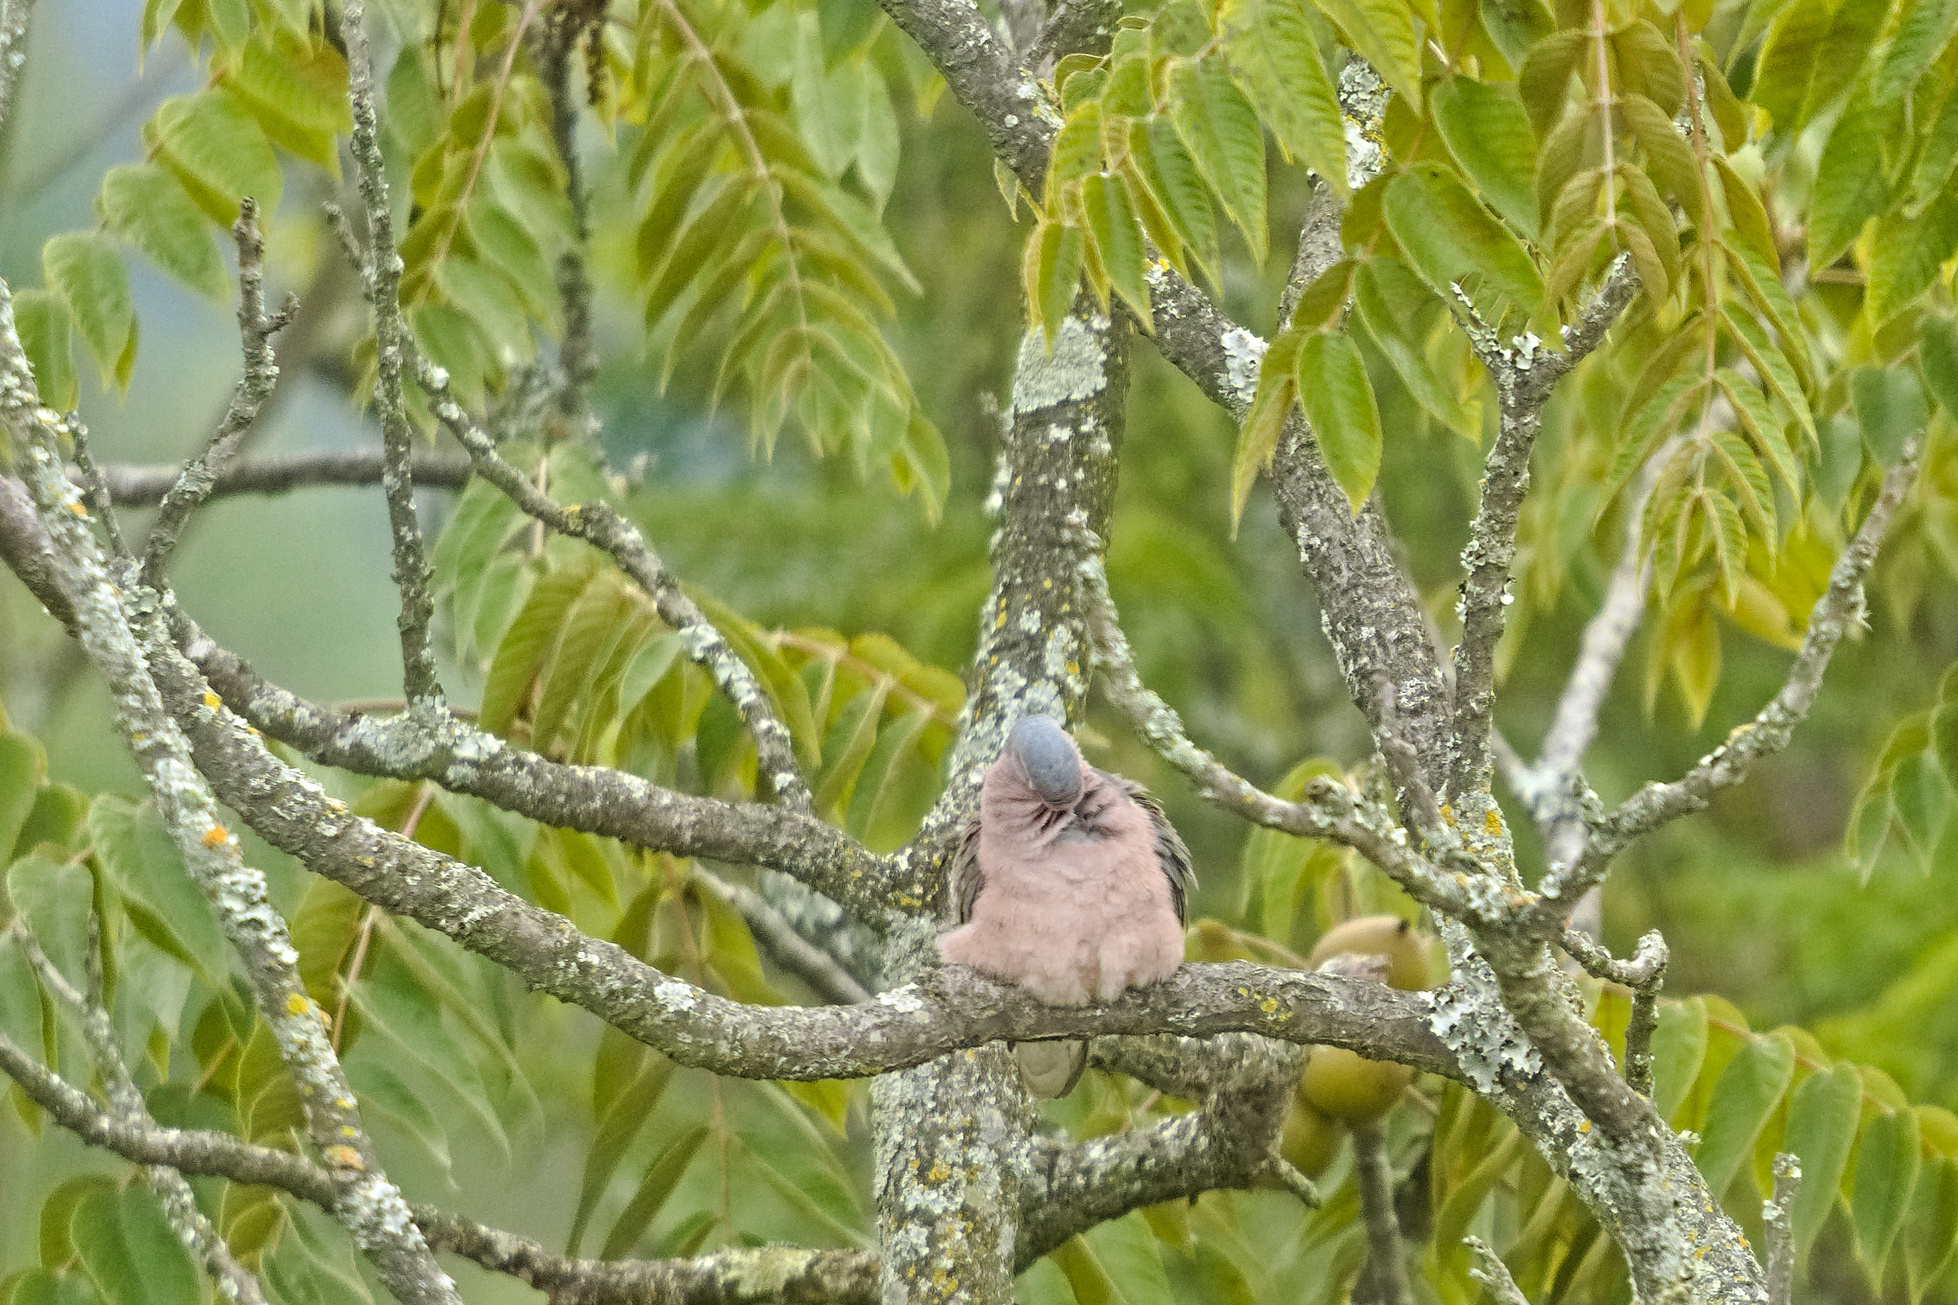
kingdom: Animalia
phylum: Chordata
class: Aves
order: Columbiformes
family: Columbidae
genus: Zenaida
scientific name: Zenaida auriculata
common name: Eared dove
